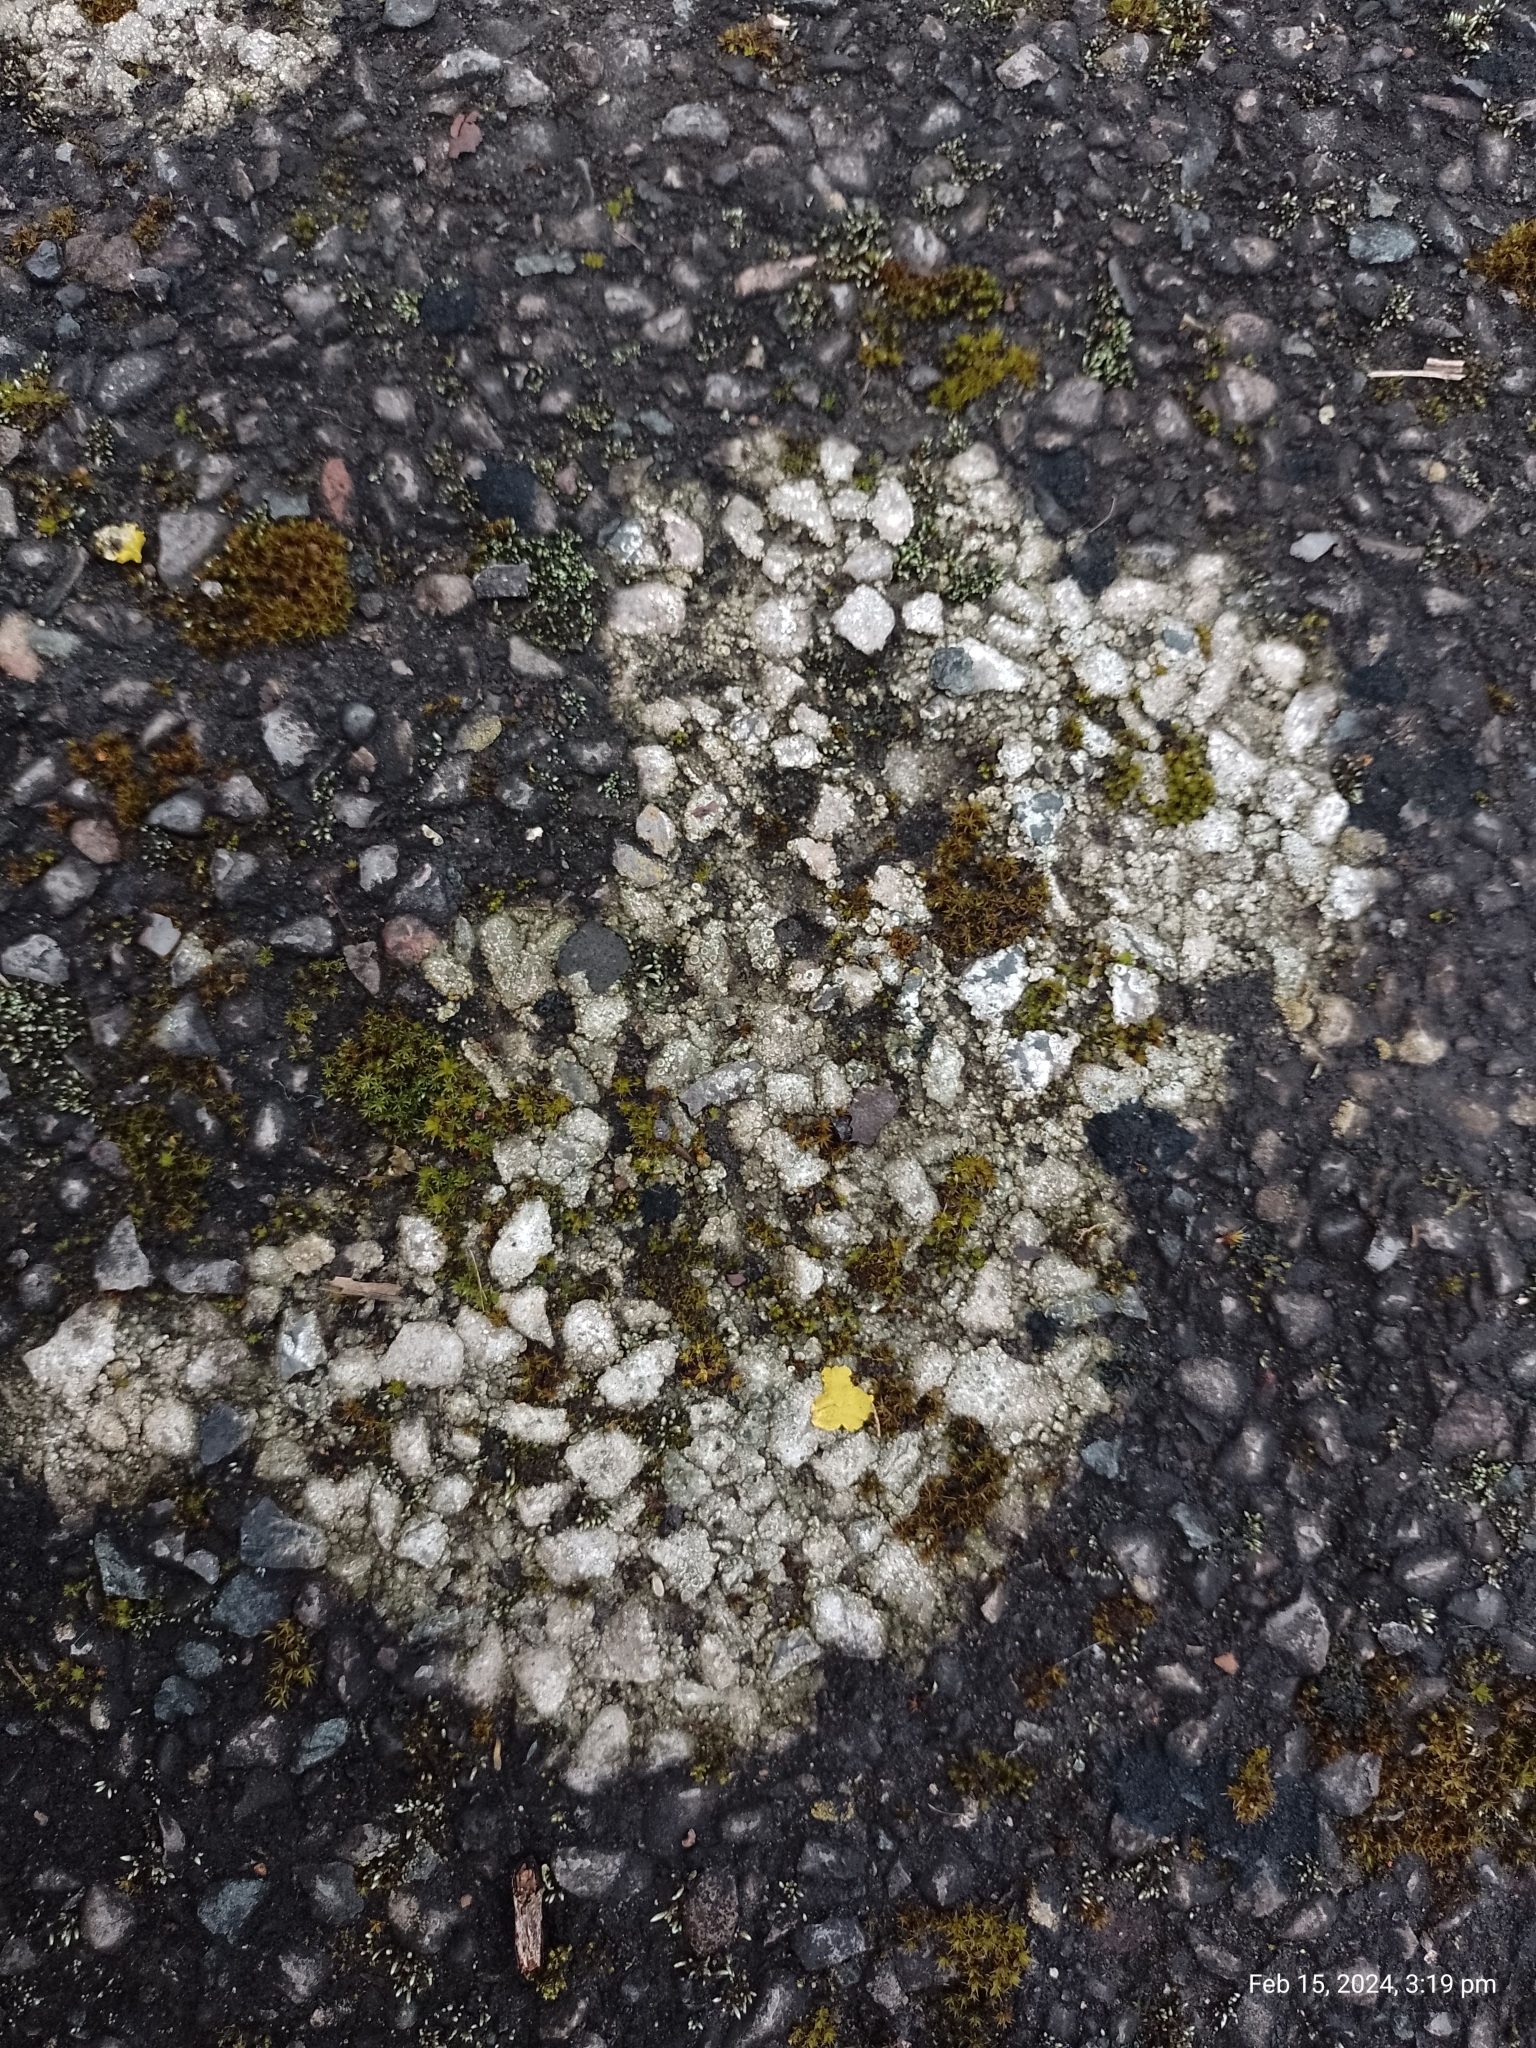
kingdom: Fungi
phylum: Ascomycota
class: Lecanoromycetes
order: Pertusariales
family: Megasporaceae
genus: Circinaria
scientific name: Circinaria contorta
